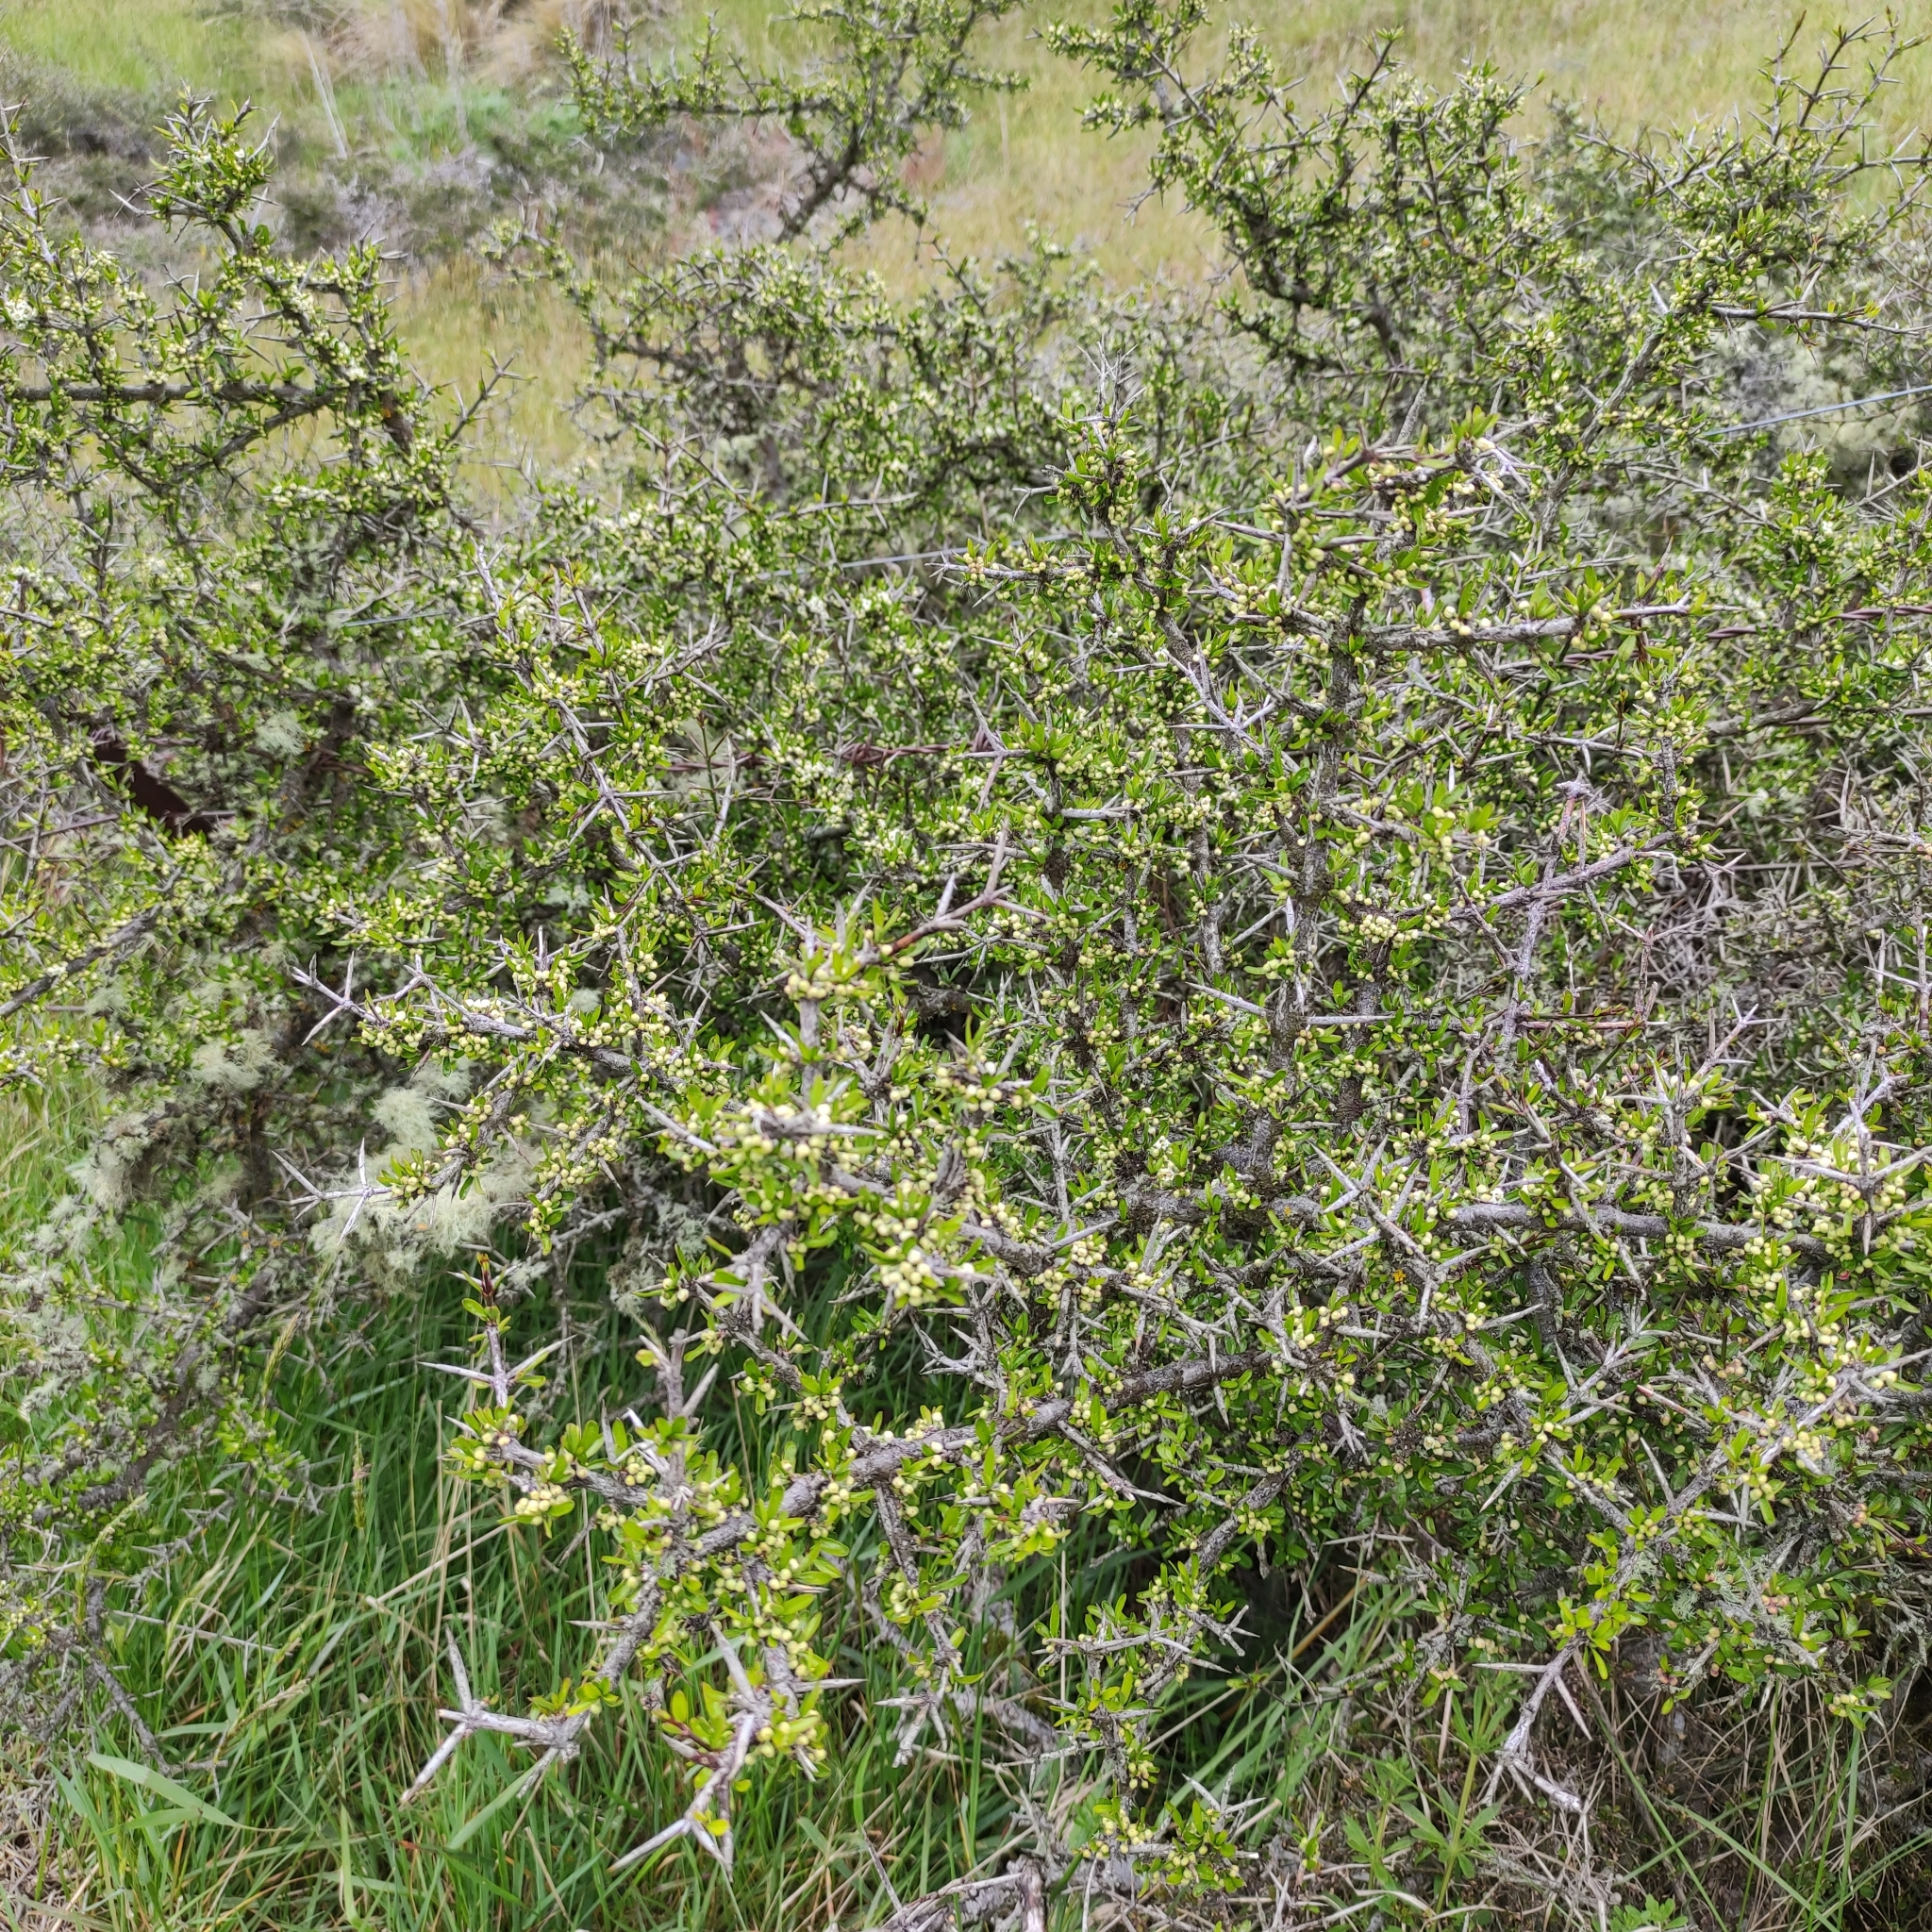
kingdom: Plantae
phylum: Tracheophyta
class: Magnoliopsida
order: Rosales
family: Rhamnaceae
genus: Discaria
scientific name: Discaria toumatou
